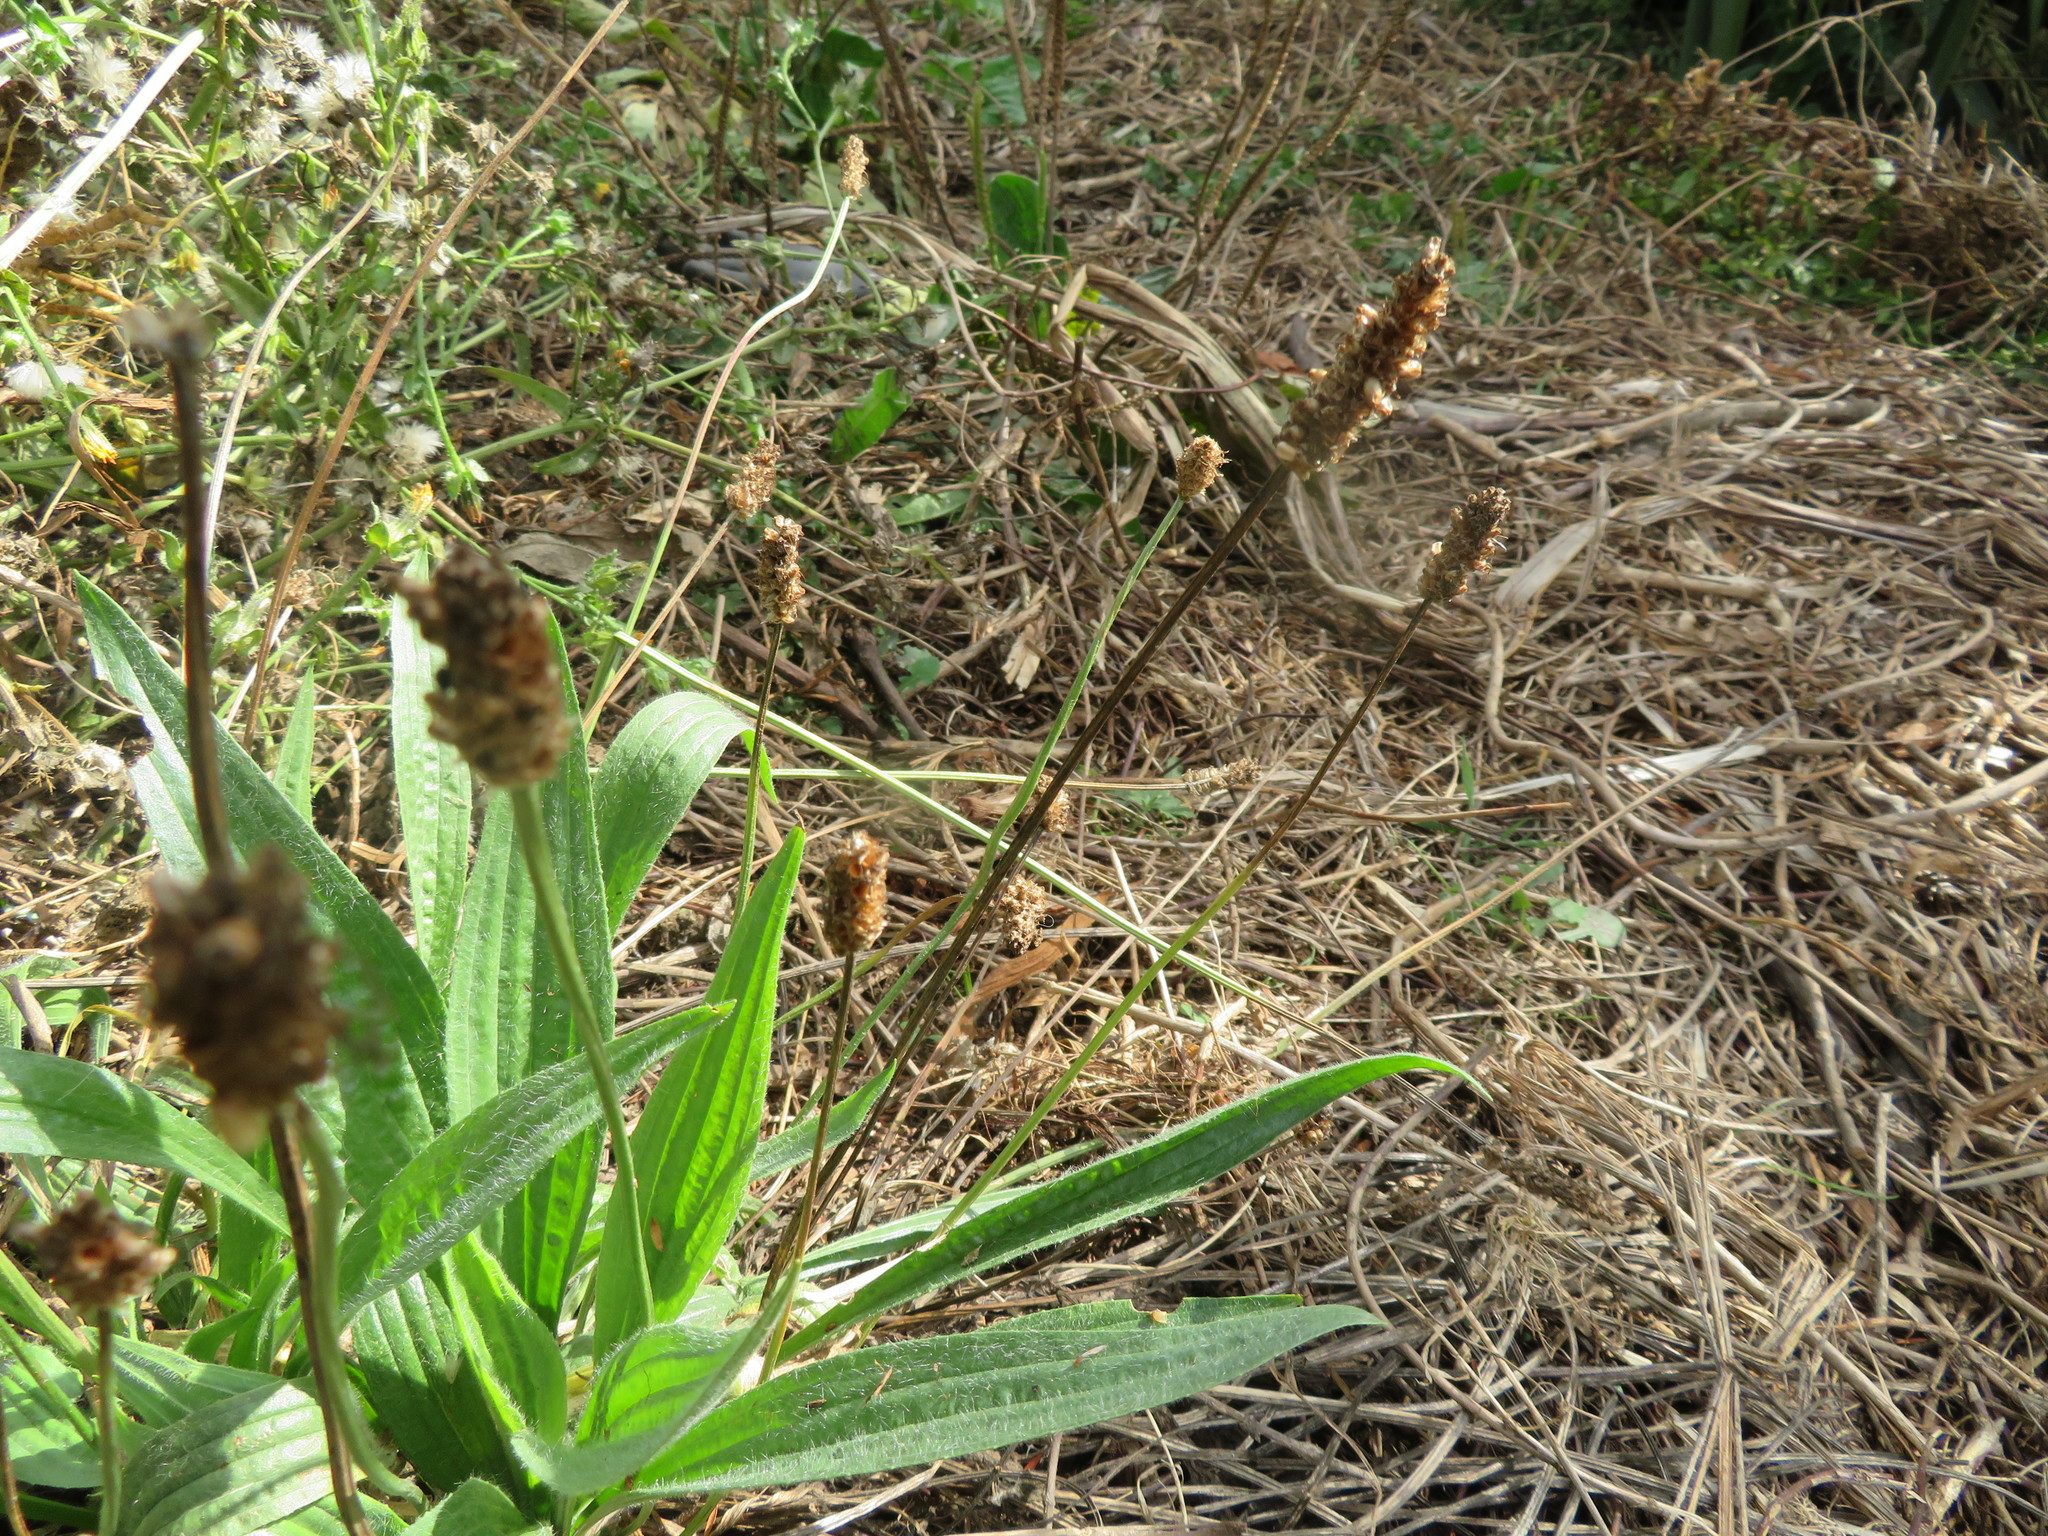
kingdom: Plantae
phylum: Tracheophyta
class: Magnoliopsida
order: Lamiales
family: Plantaginaceae
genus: Plantago
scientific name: Plantago lanceolata
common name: Ribwort plantain
